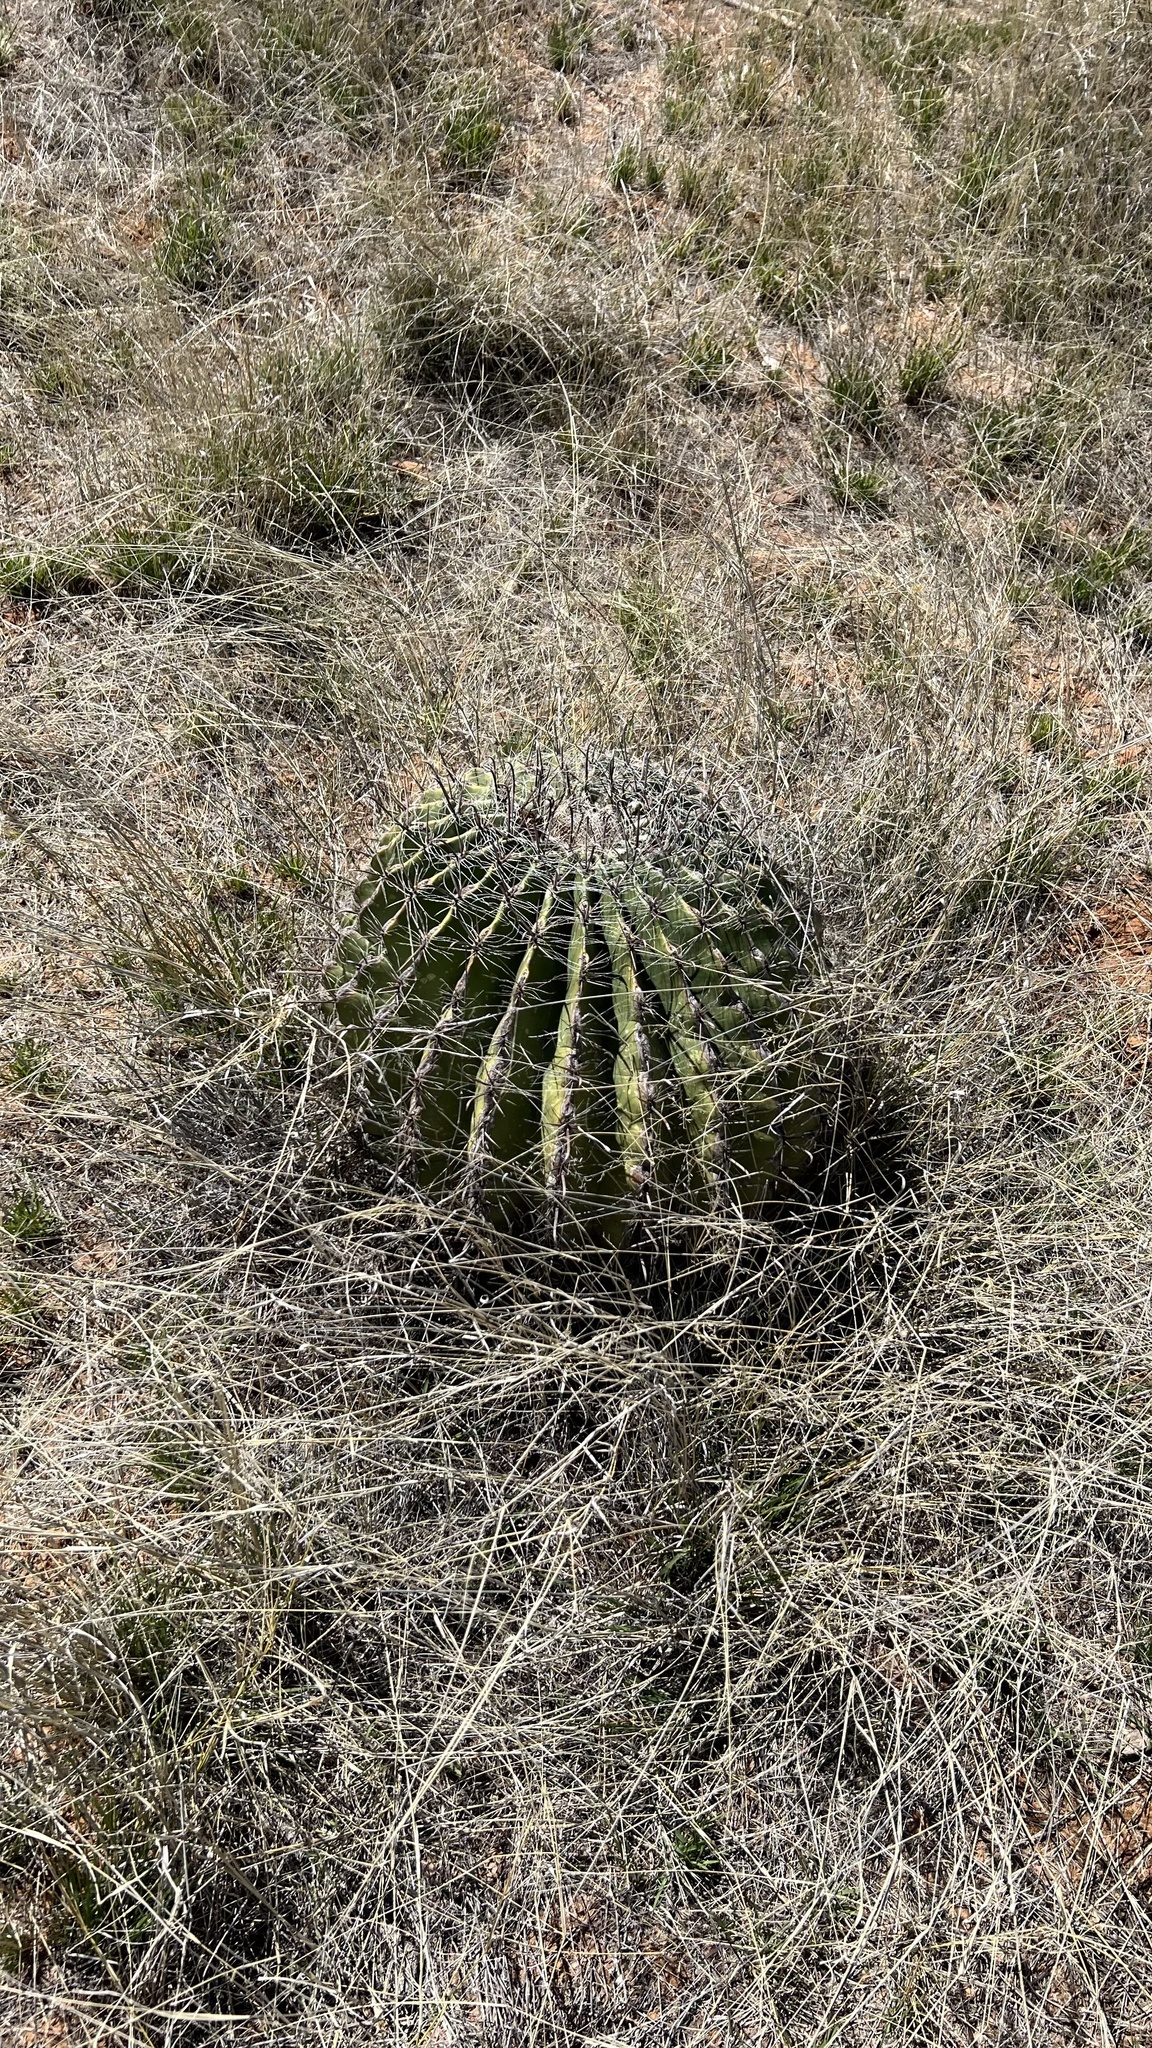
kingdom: Plantae
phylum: Tracheophyta
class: Magnoliopsida
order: Caryophyllales
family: Cactaceae
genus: Ferocactus
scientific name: Ferocactus wislizeni
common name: Candy barrel cactus
